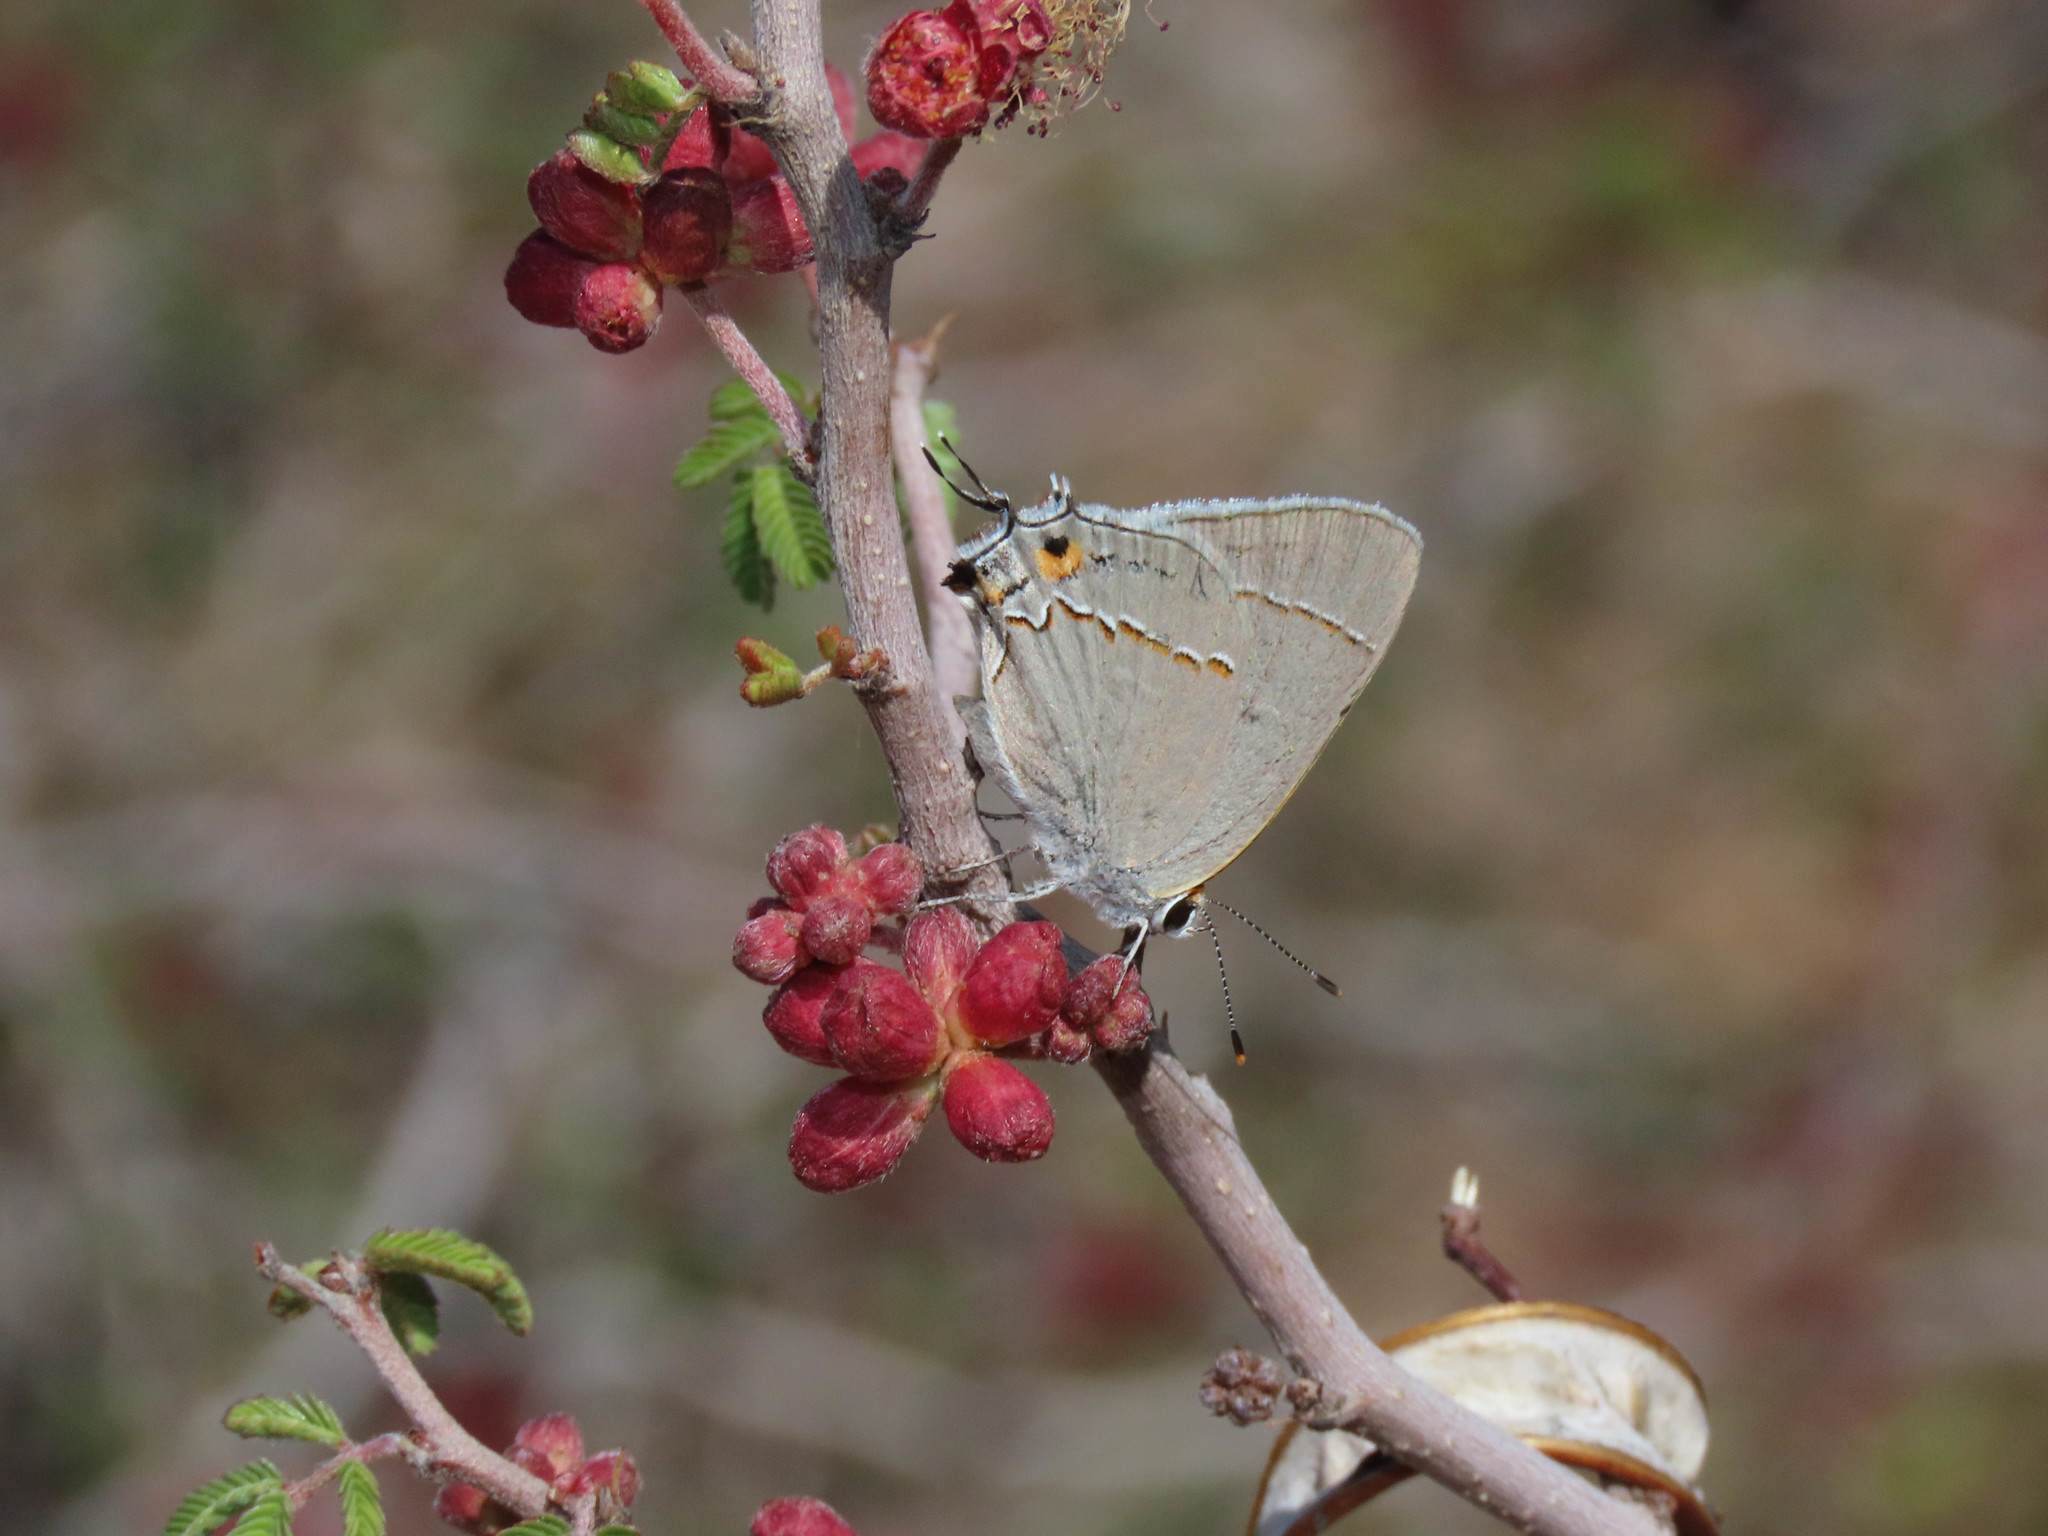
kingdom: Animalia
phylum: Arthropoda
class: Insecta
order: Lepidoptera
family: Lycaenidae
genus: Strymon
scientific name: Strymon melinus
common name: Gray hairstreak
